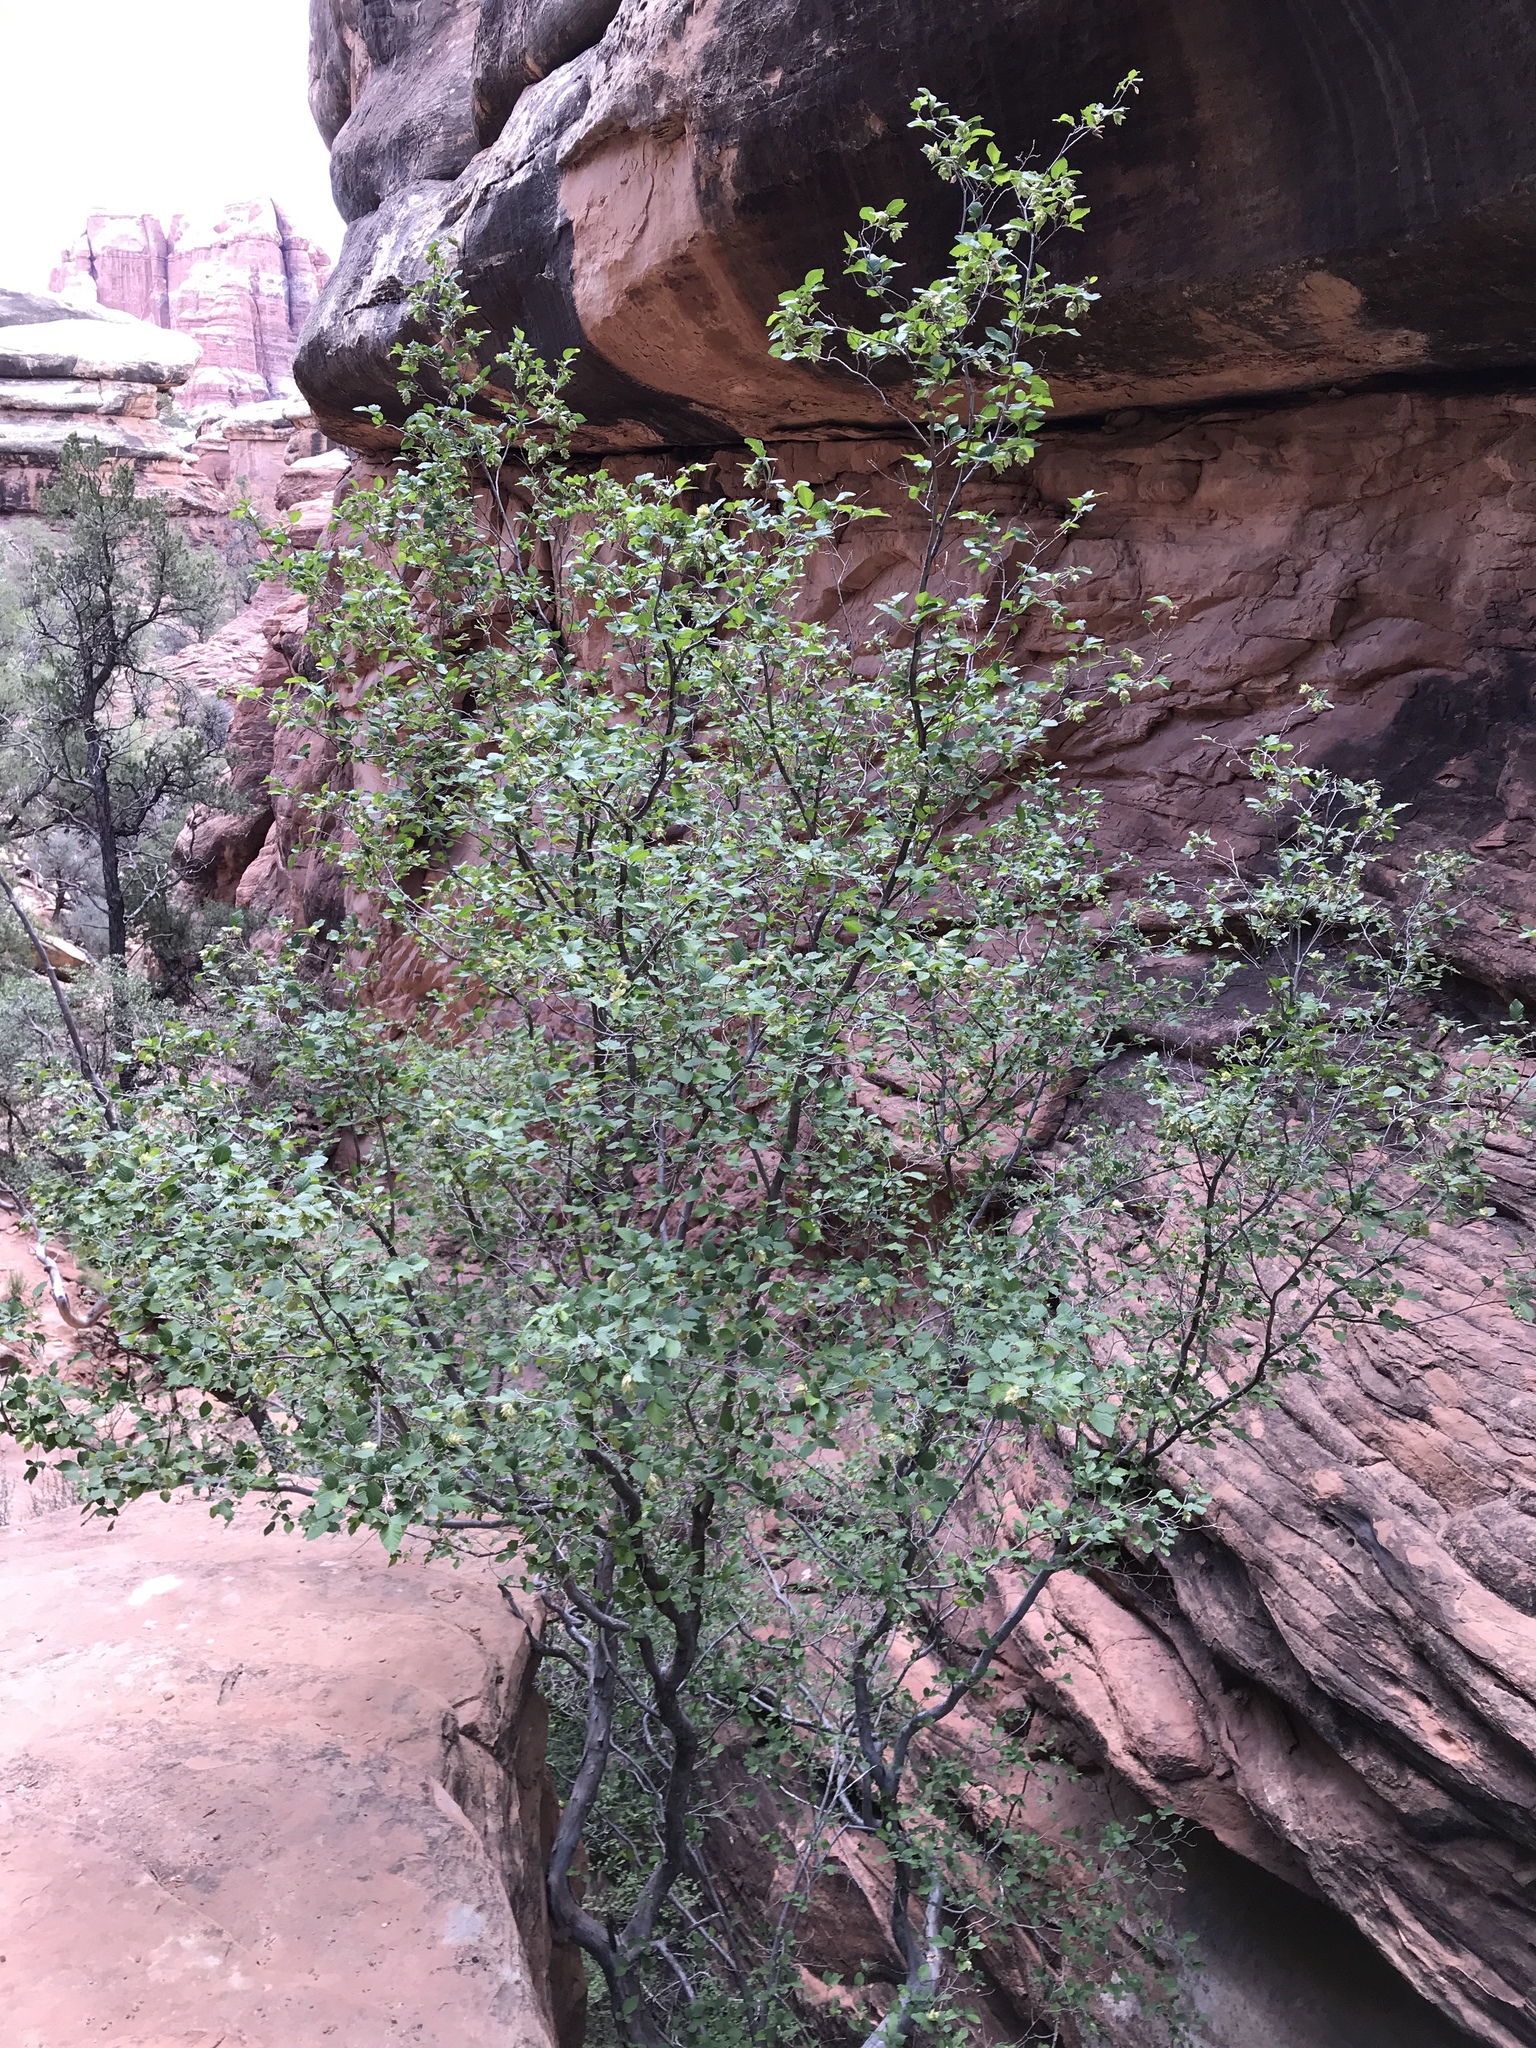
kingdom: Plantae
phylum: Tracheophyta
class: Magnoliopsida
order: Fagales
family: Betulaceae
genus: Ostrya
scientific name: Ostrya knowltonii
